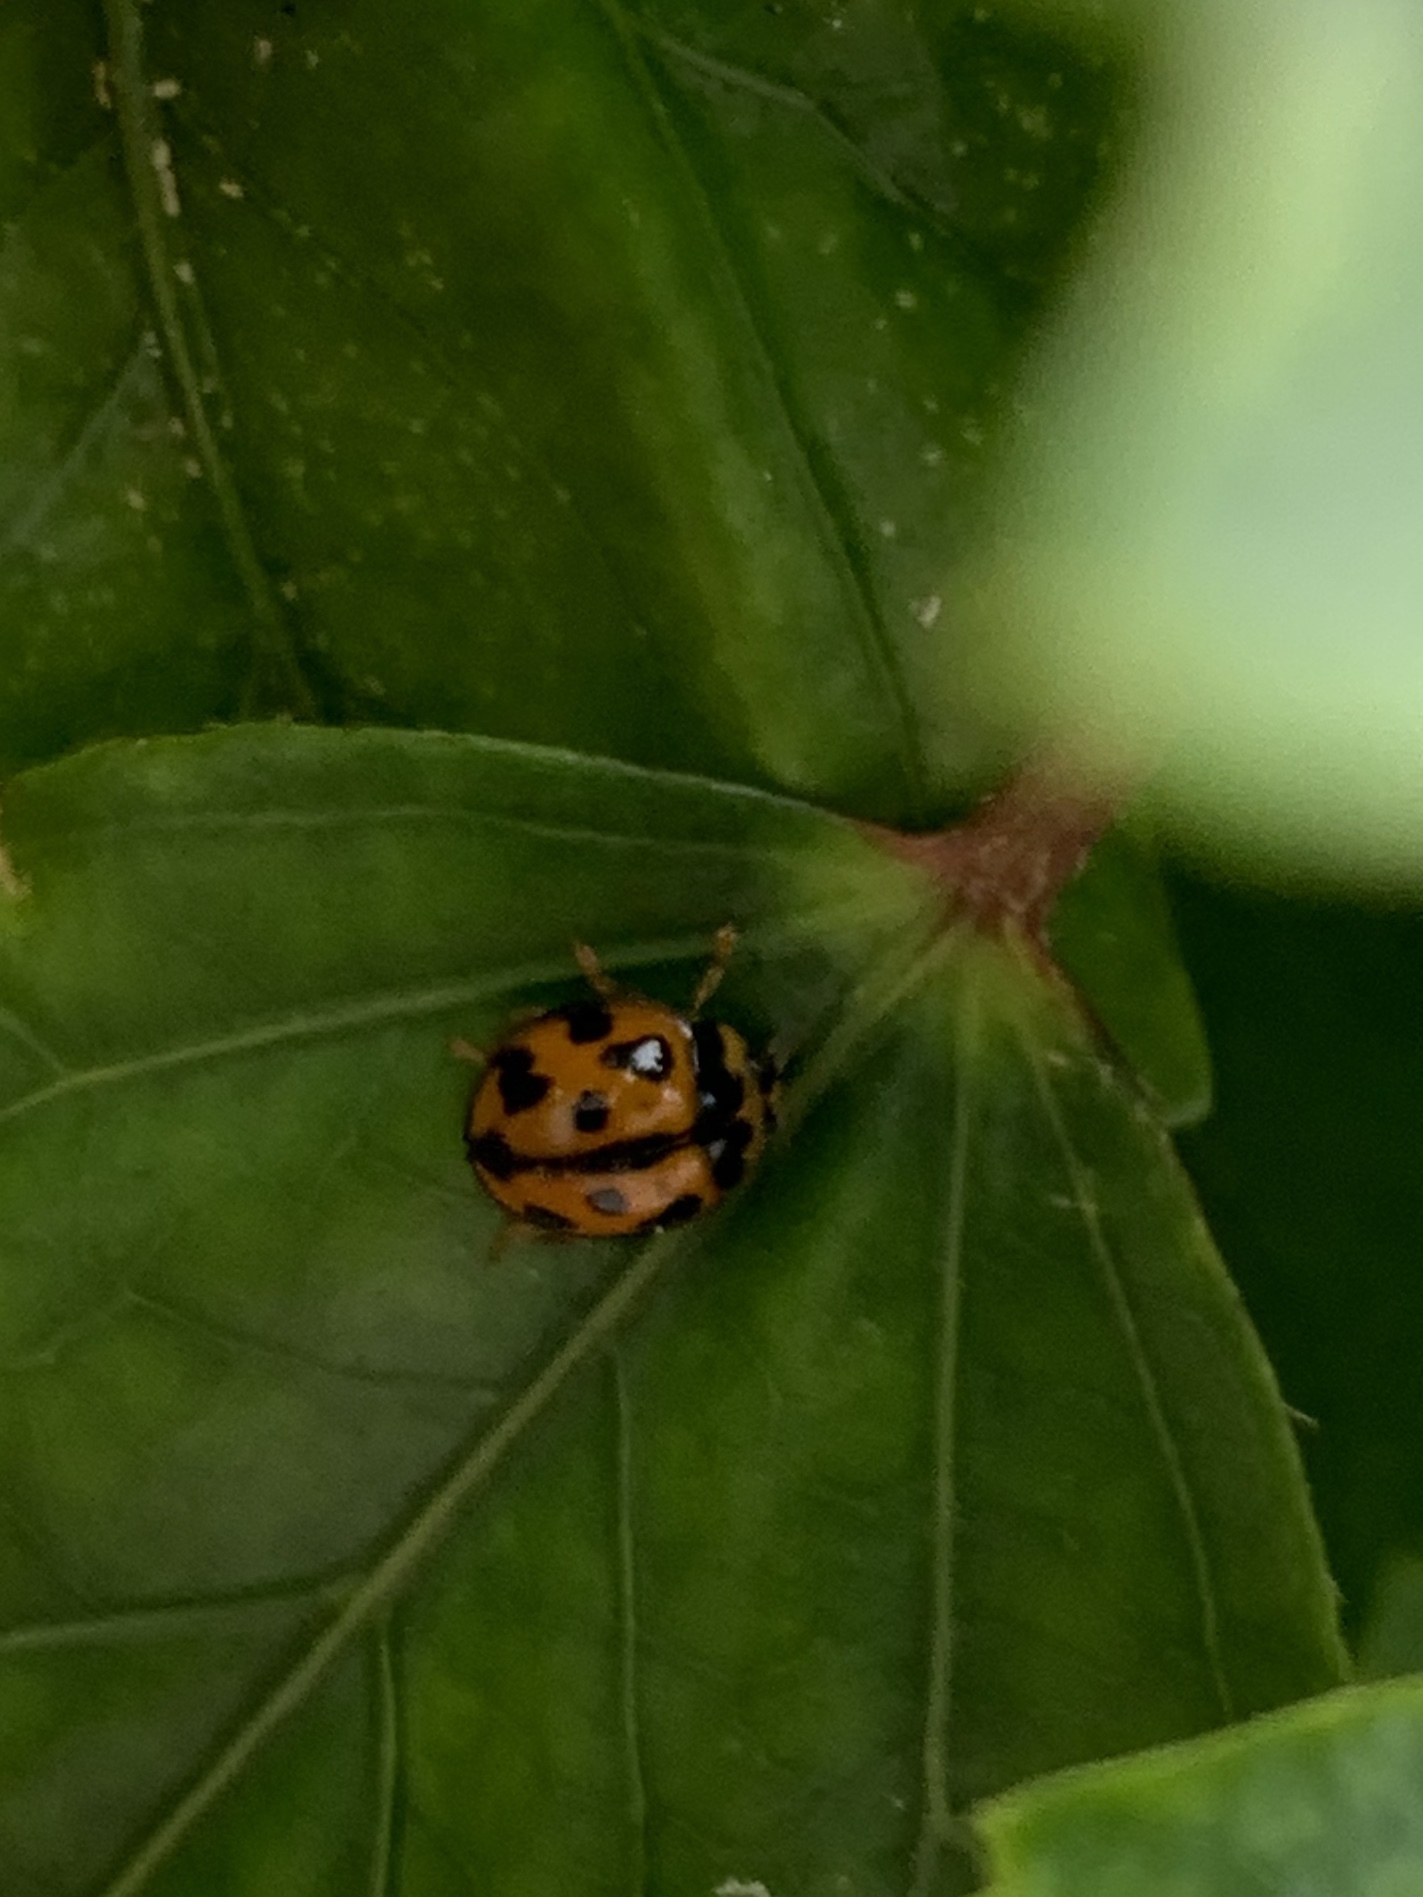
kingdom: Animalia
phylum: Arthropoda
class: Insecta
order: Coleoptera
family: Coccinellidae
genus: Coelophora
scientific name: Coelophora inaequalis
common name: Common australian lady beetle
